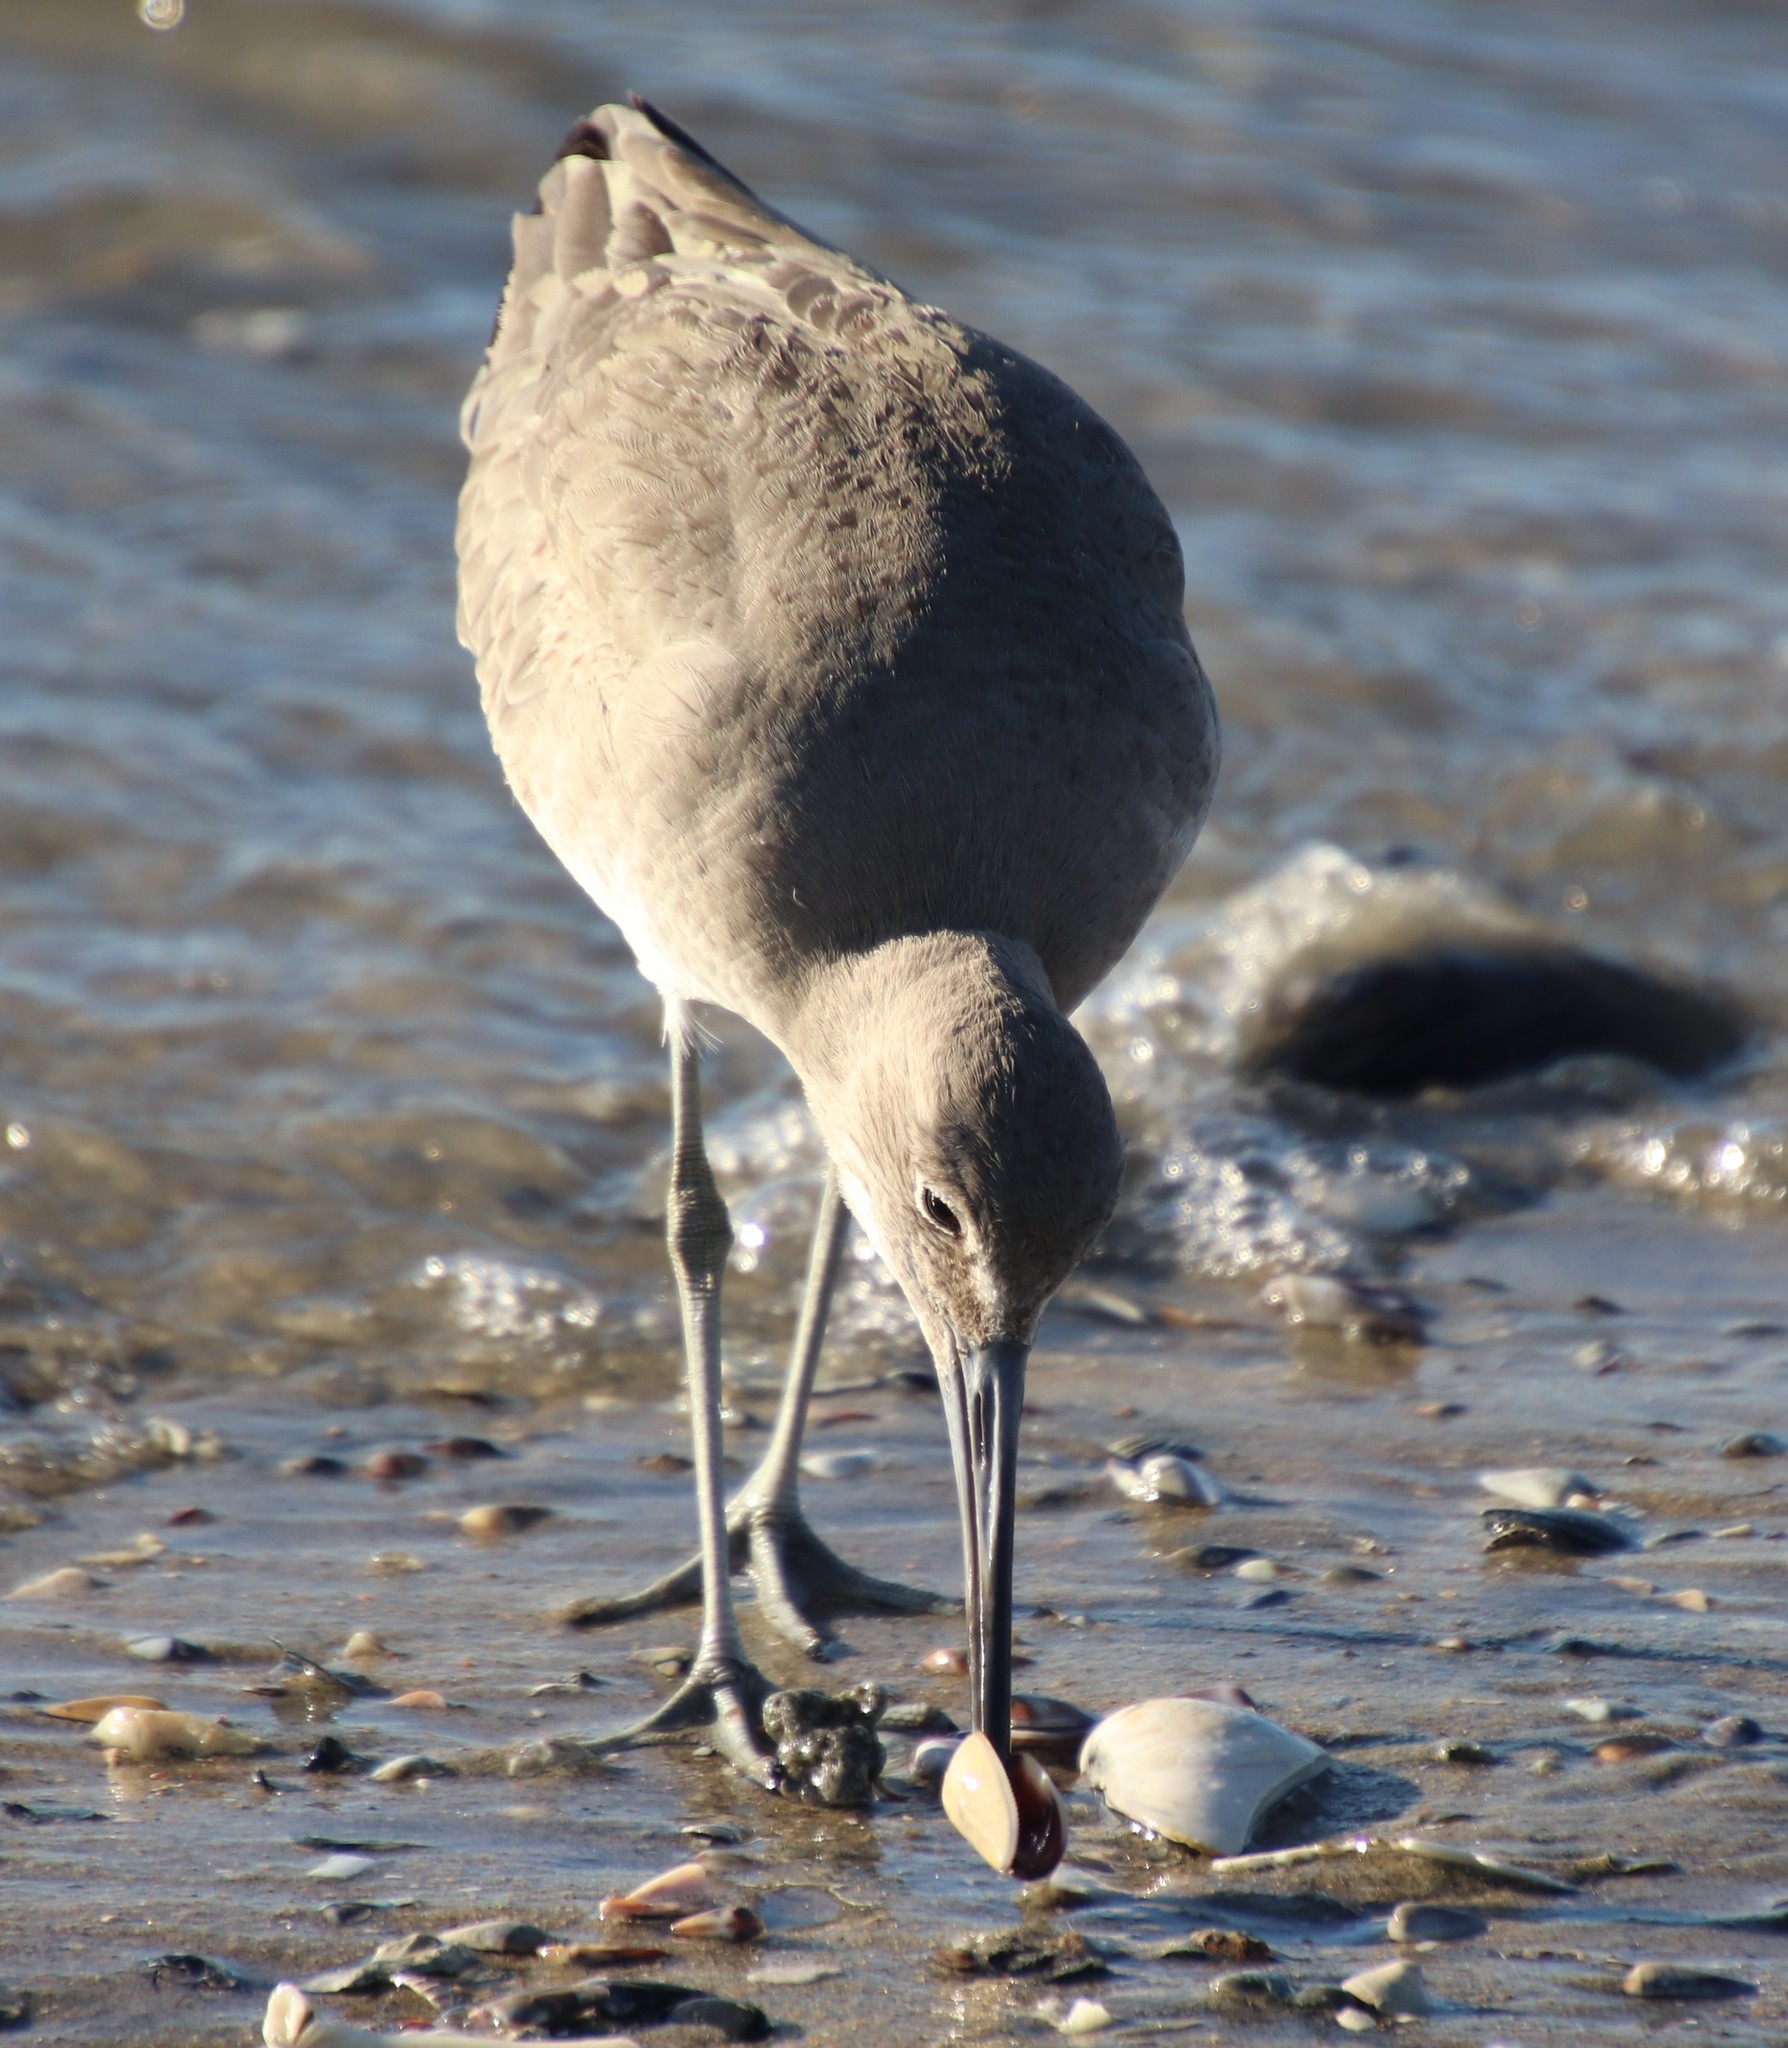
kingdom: Animalia
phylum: Chordata
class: Aves
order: Charadriiformes
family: Scolopacidae
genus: Tringa
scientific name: Tringa semipalmata
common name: Willet
